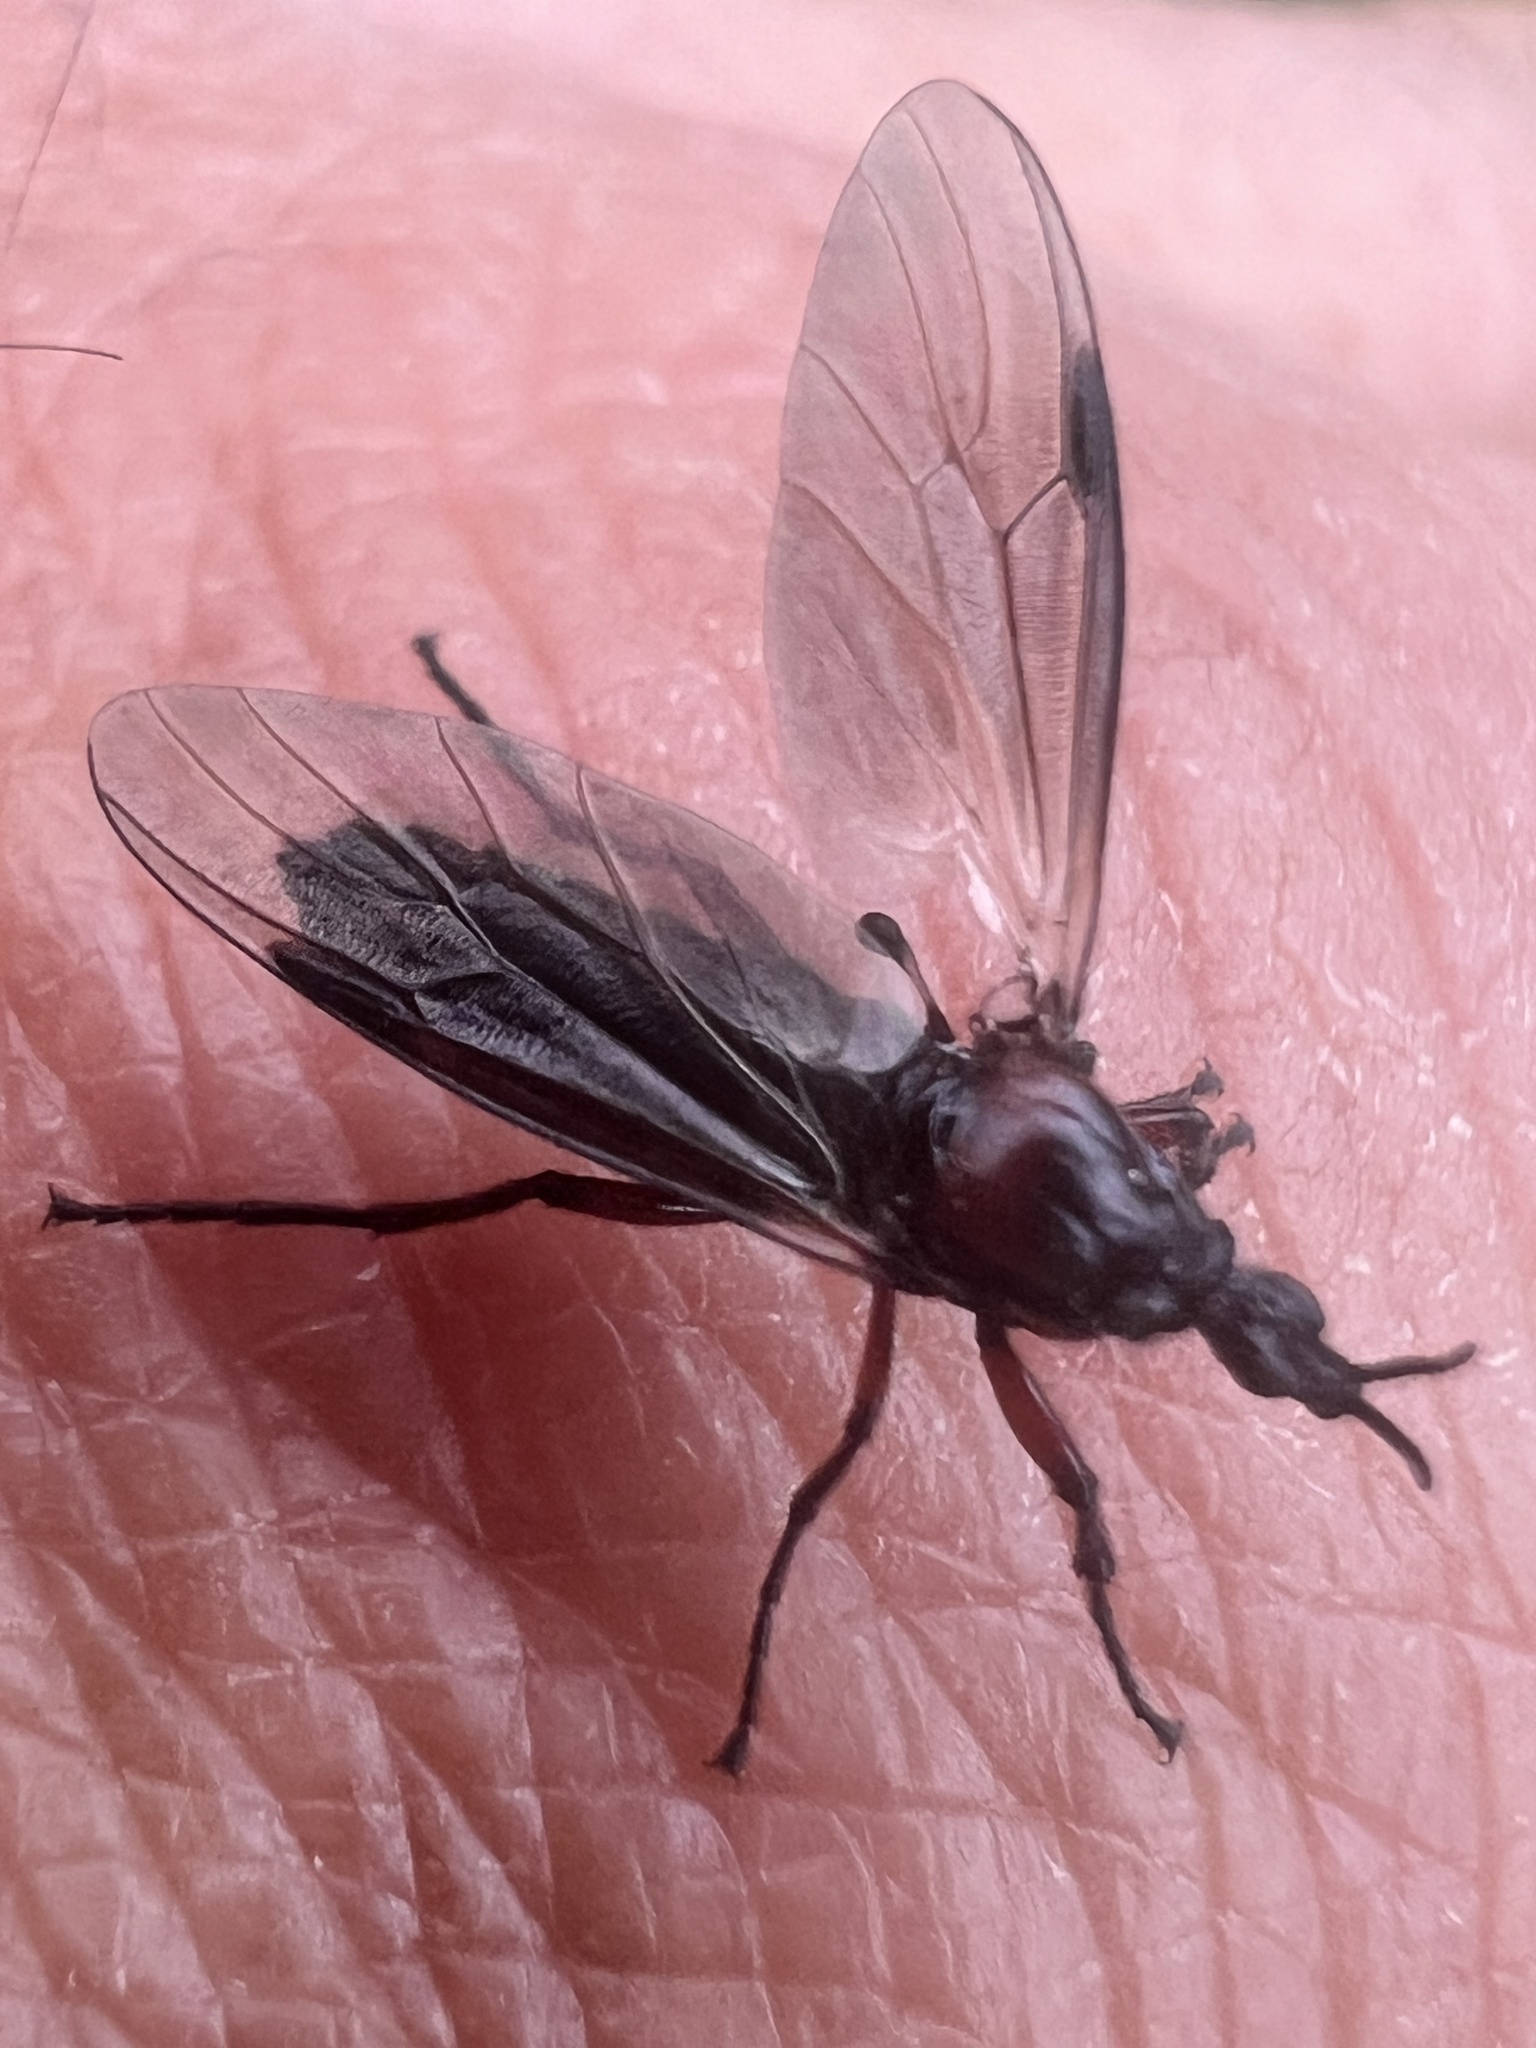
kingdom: Animalia
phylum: Arthropoda
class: Insecta
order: Diptera
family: Bibionidae
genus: Dilophus
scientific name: Dilophus nigrostigma
